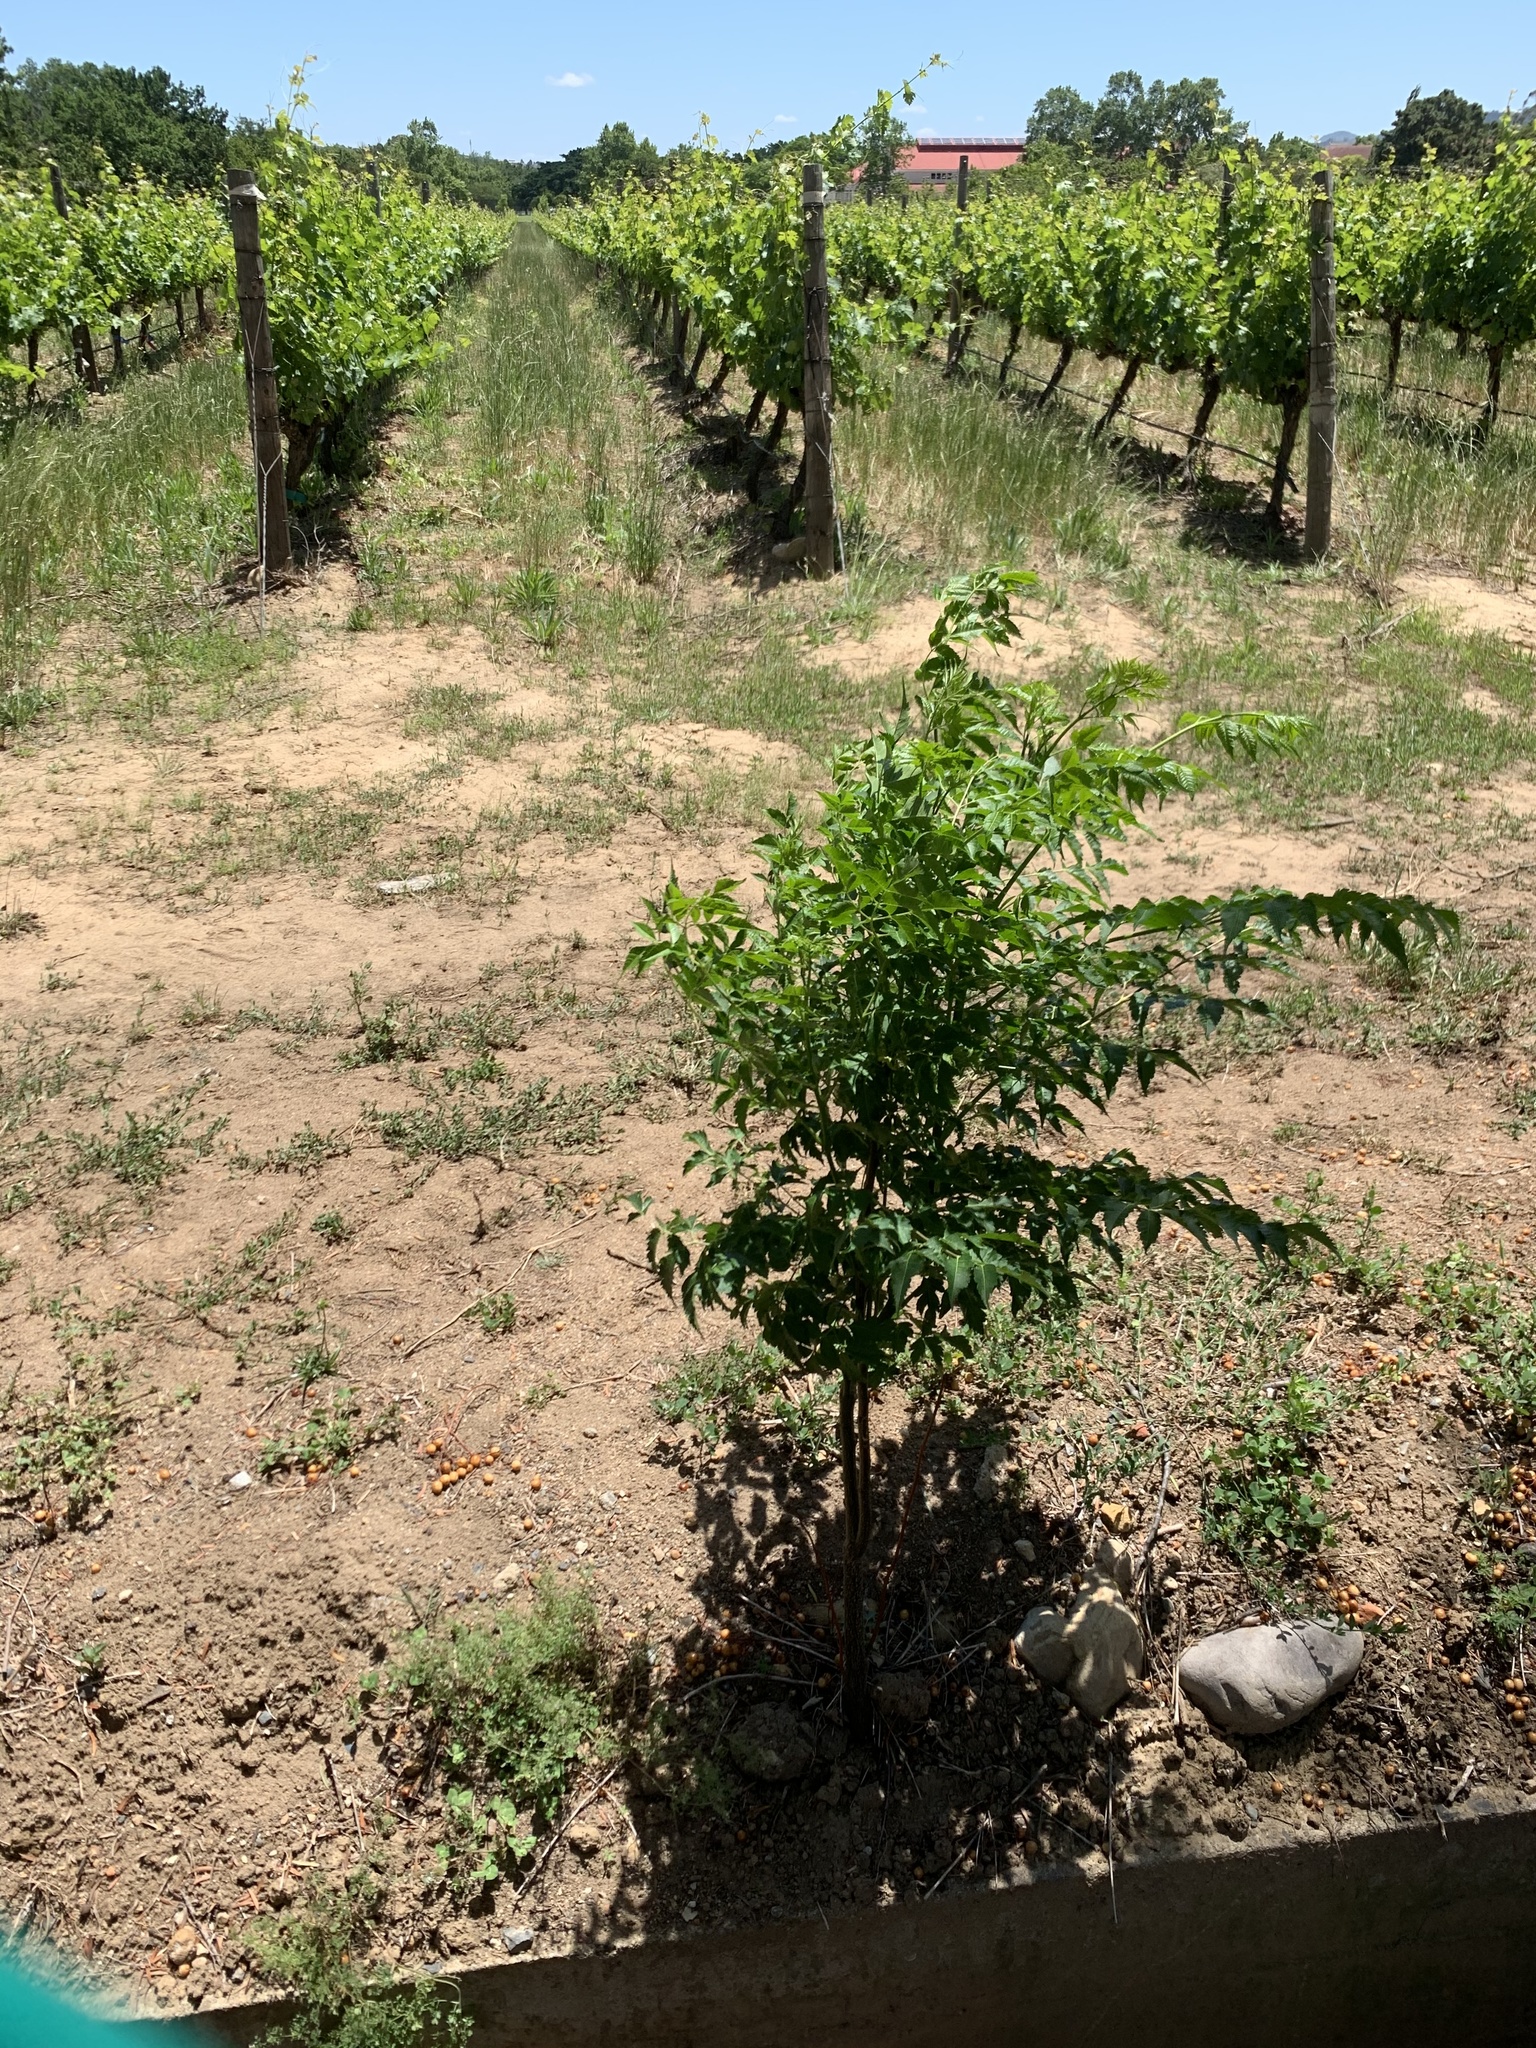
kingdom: Plantae
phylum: Tracheophyta
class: Magnoliopsida
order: Sapindales
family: Meliaceae
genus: Melia
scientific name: Melia azedarach
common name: Chinaberrytree
